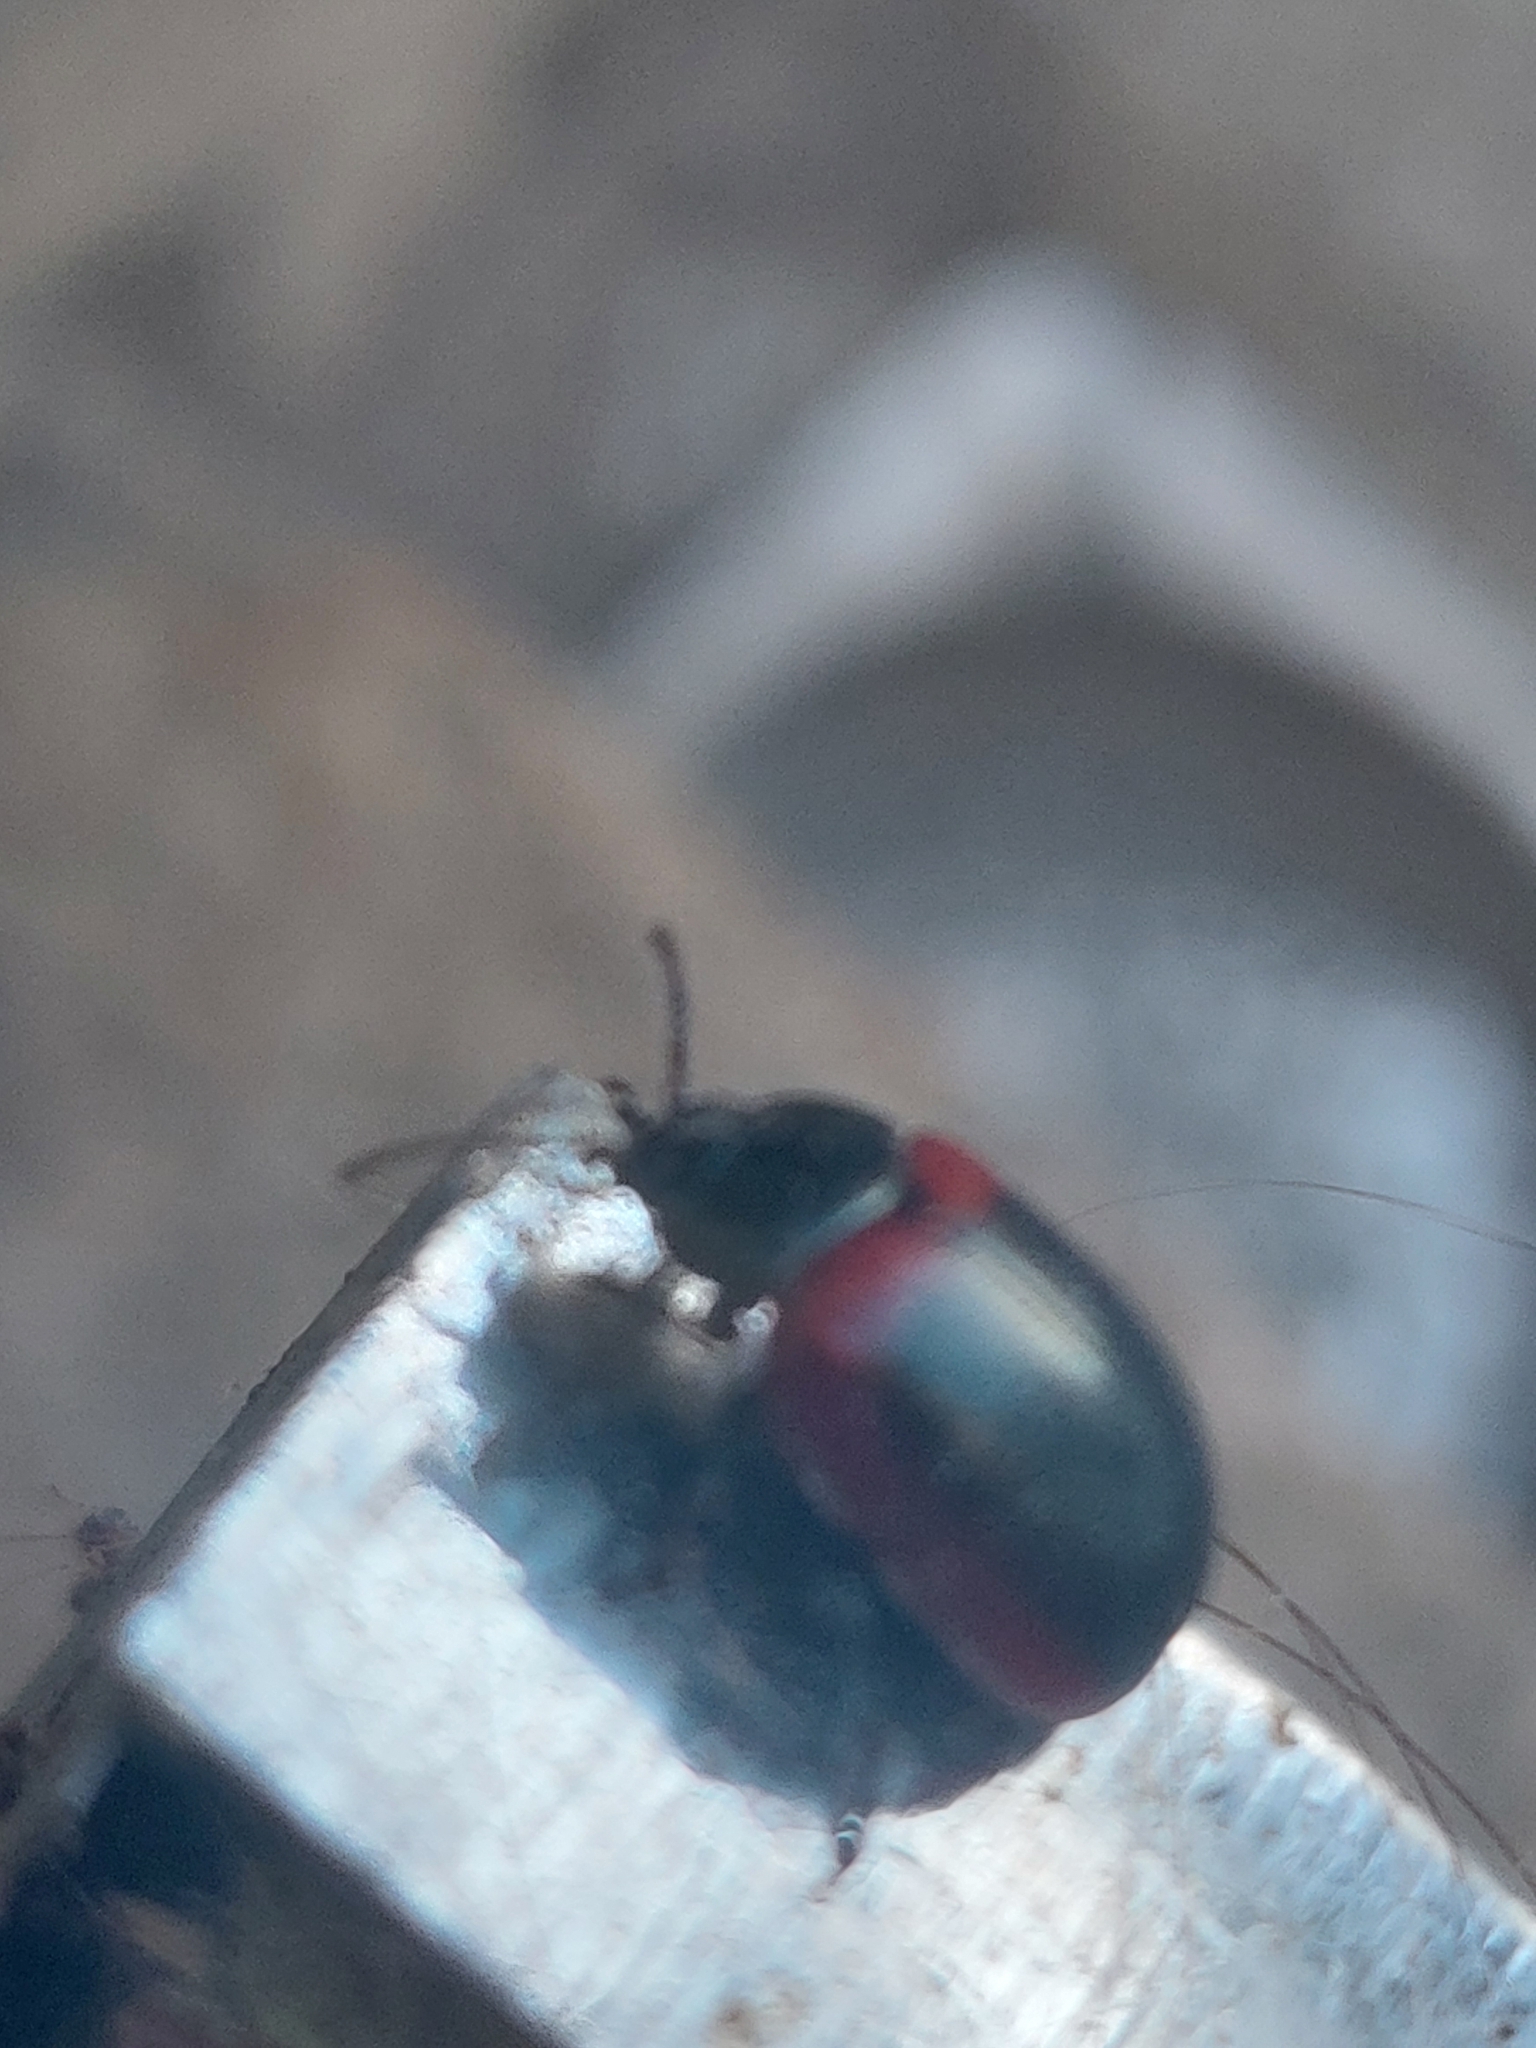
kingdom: Animalia
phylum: Arthropoda
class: Insecta
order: Coleoptera
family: Chrysomelidae
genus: Chrysolina
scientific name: Chrysolina limbata
